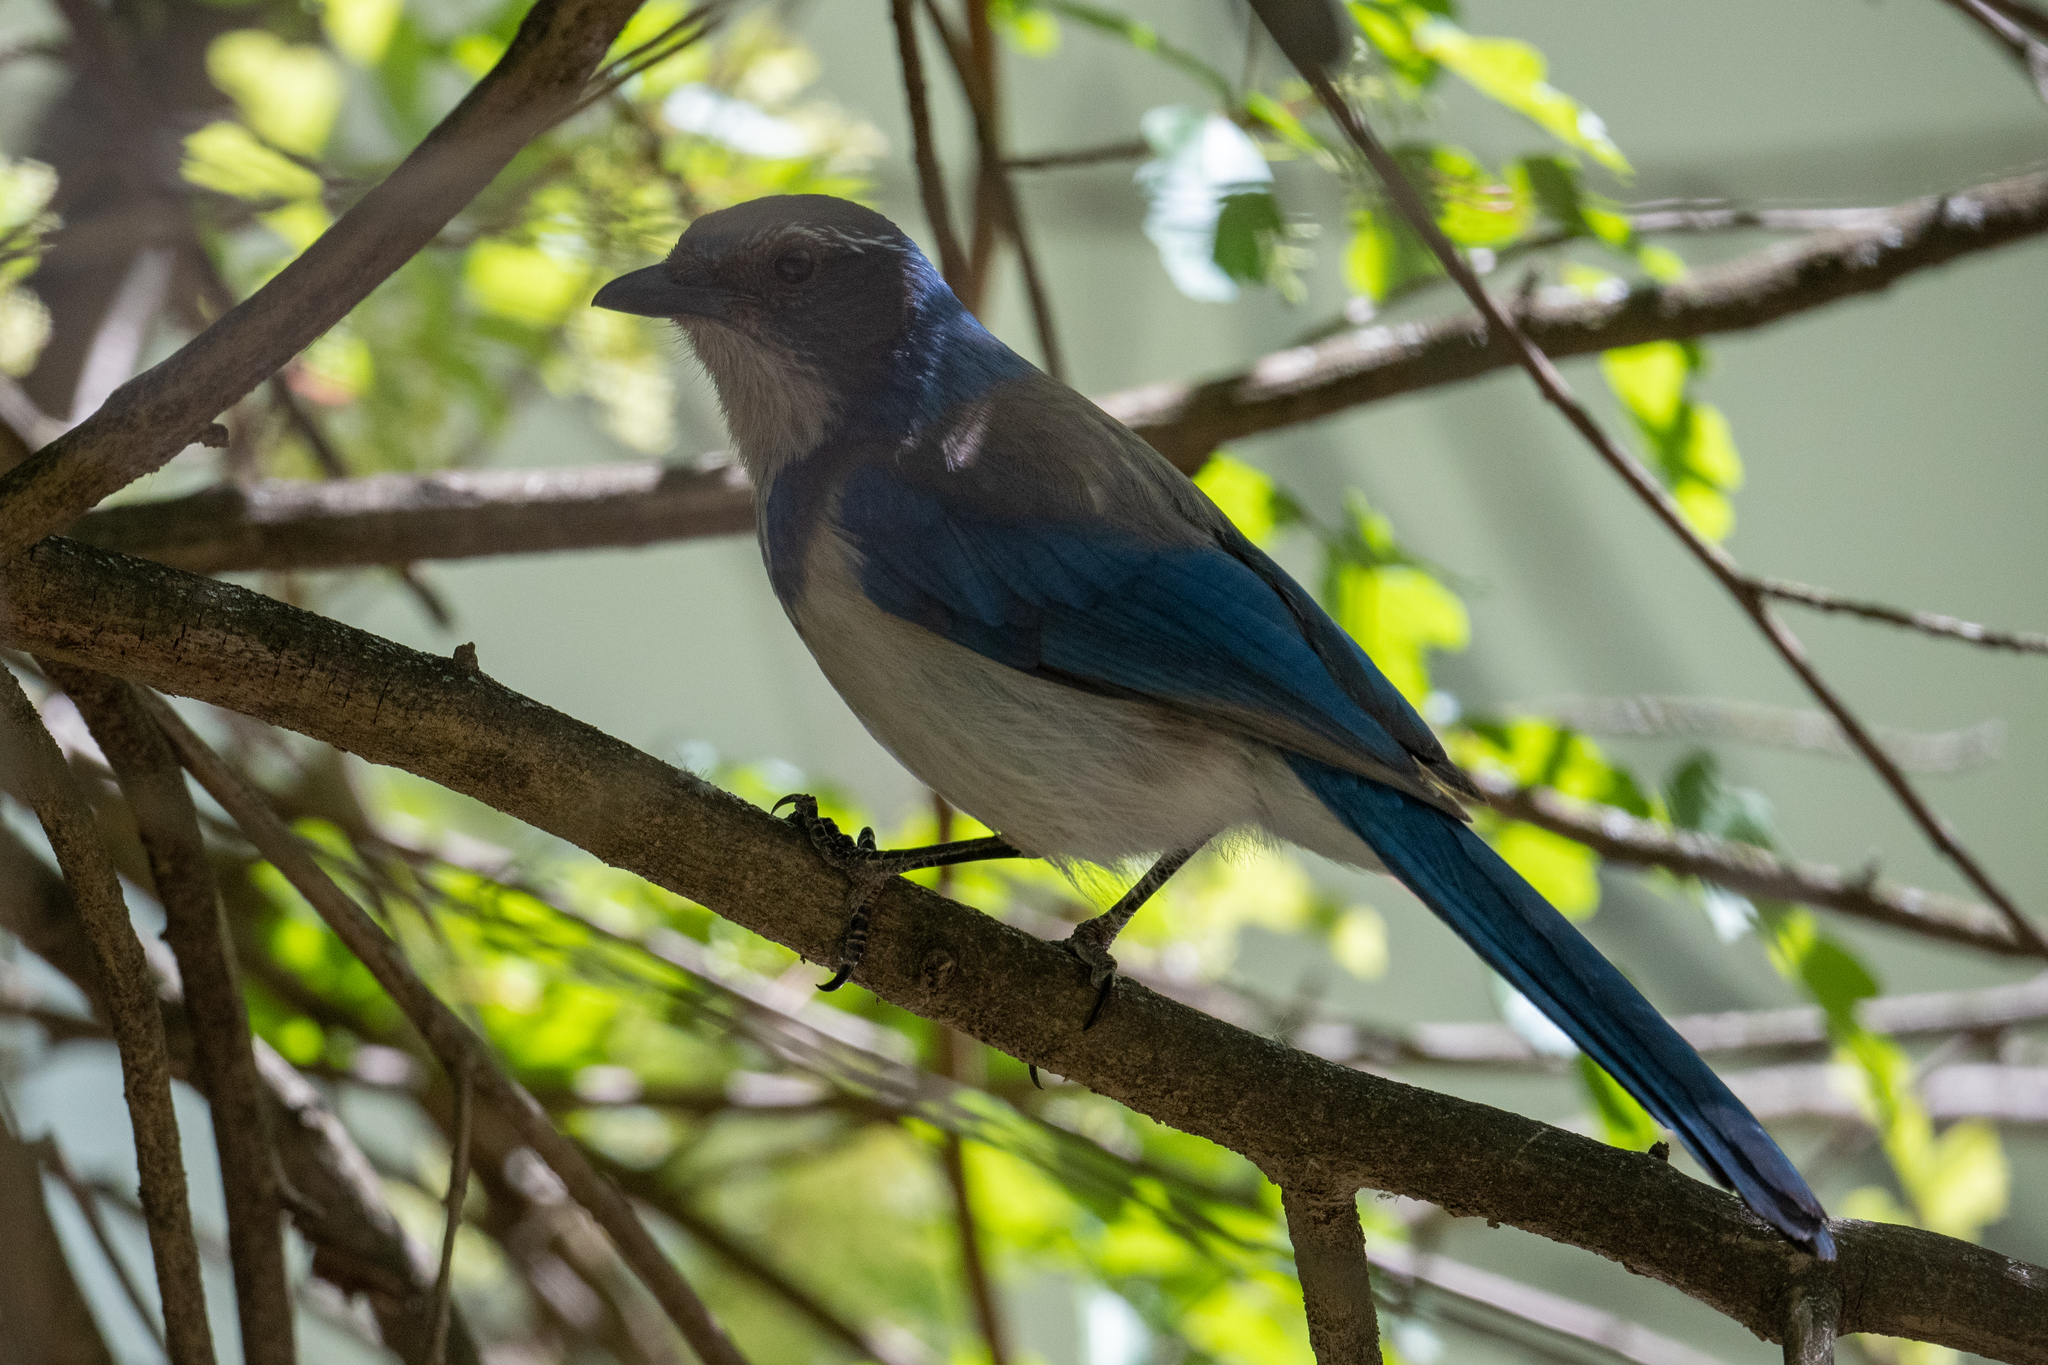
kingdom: Animalia
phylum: Chordata
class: Aves
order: Passeriformes
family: Corvidae
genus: Aphelocoma
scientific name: Aphelocoma californica
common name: California scrub-jay
